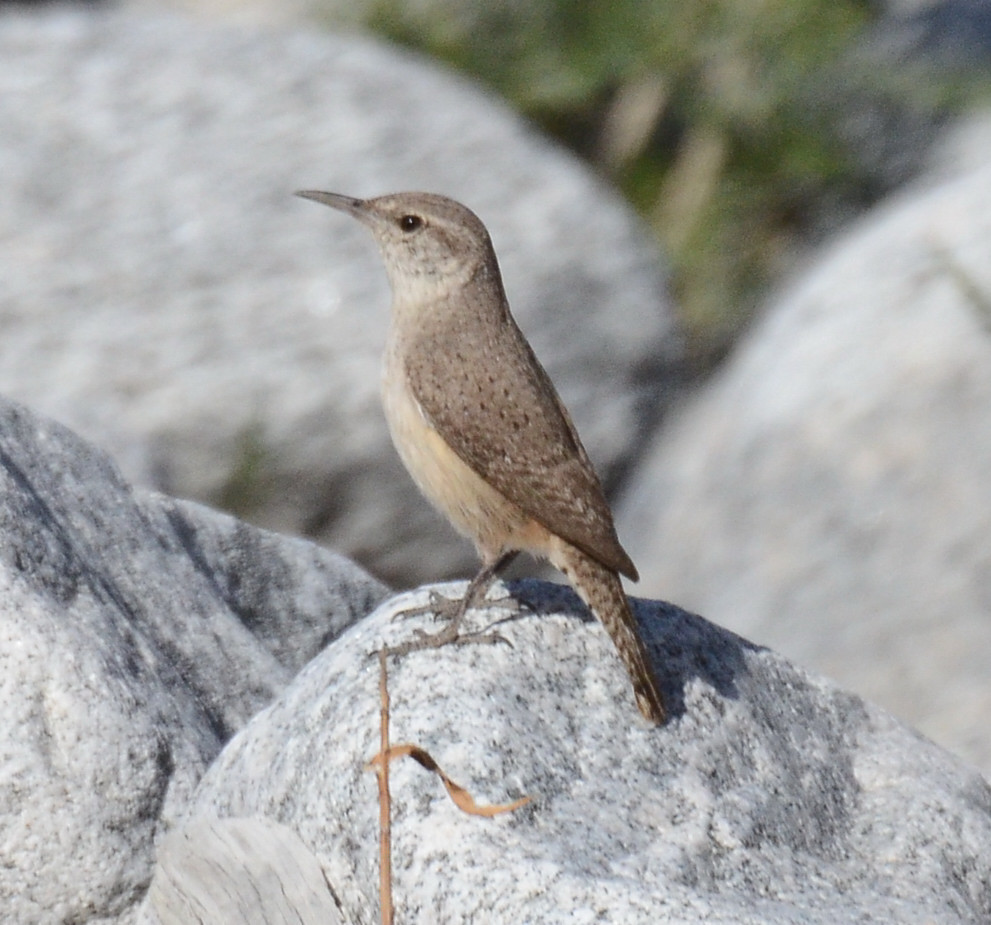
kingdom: Animalia
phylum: Chordata
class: Aves
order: Passeriformes
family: Troglodytidae
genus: Salpinctes
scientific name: Salpinctes obsoletus
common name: Rock wren
